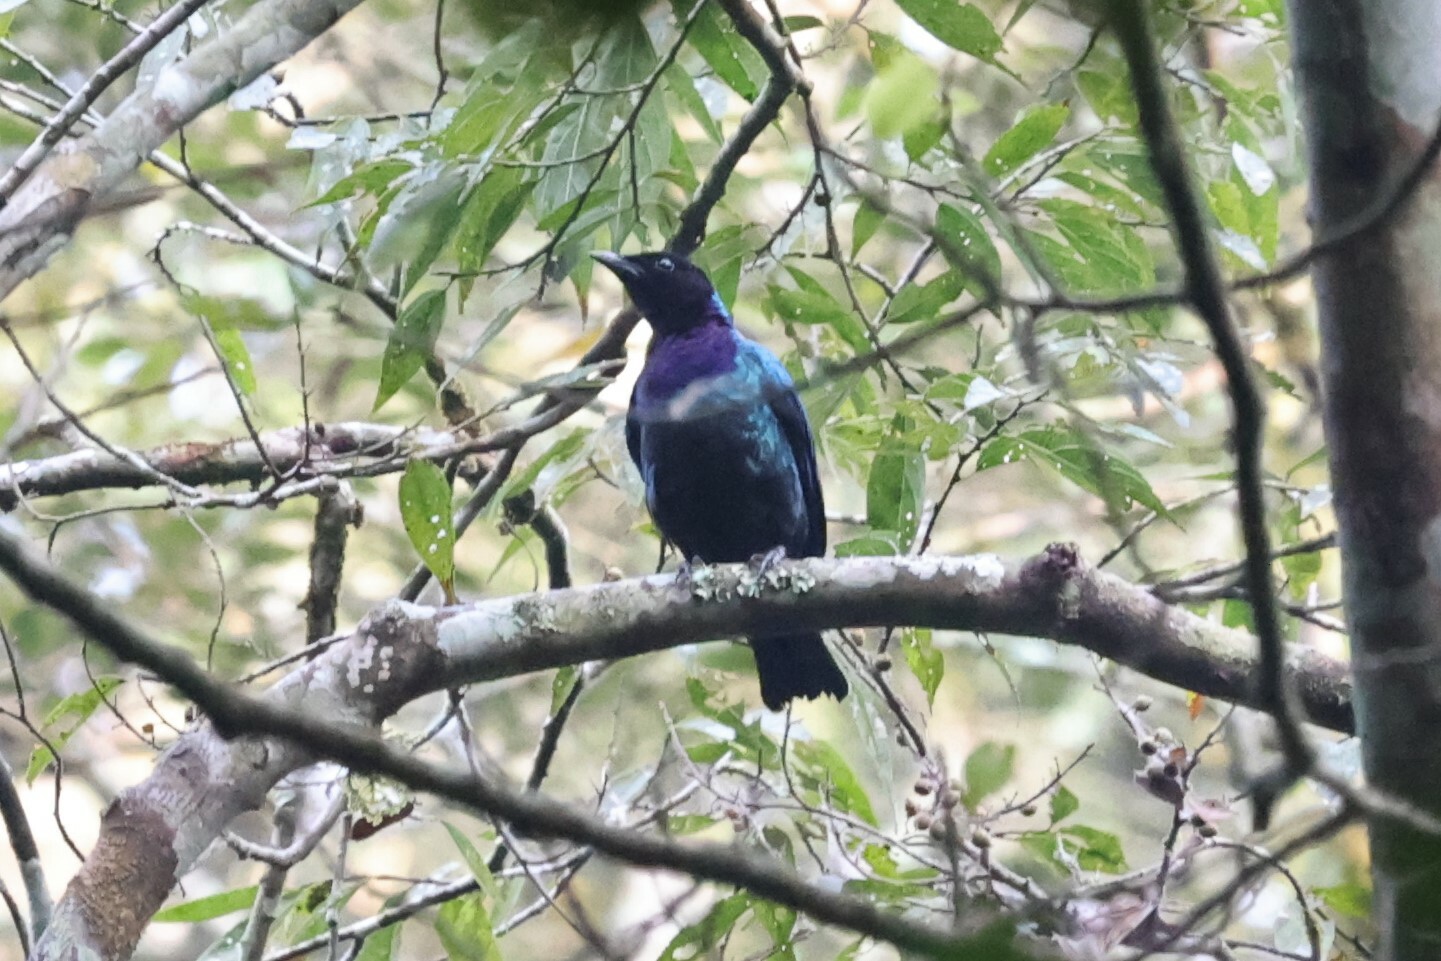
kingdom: Animalia
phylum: Chordata
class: Aves
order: Passeriformes
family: Sturnidae
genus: Hylopsar
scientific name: Hylopsar purpureiceps
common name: Purple-headed starling
